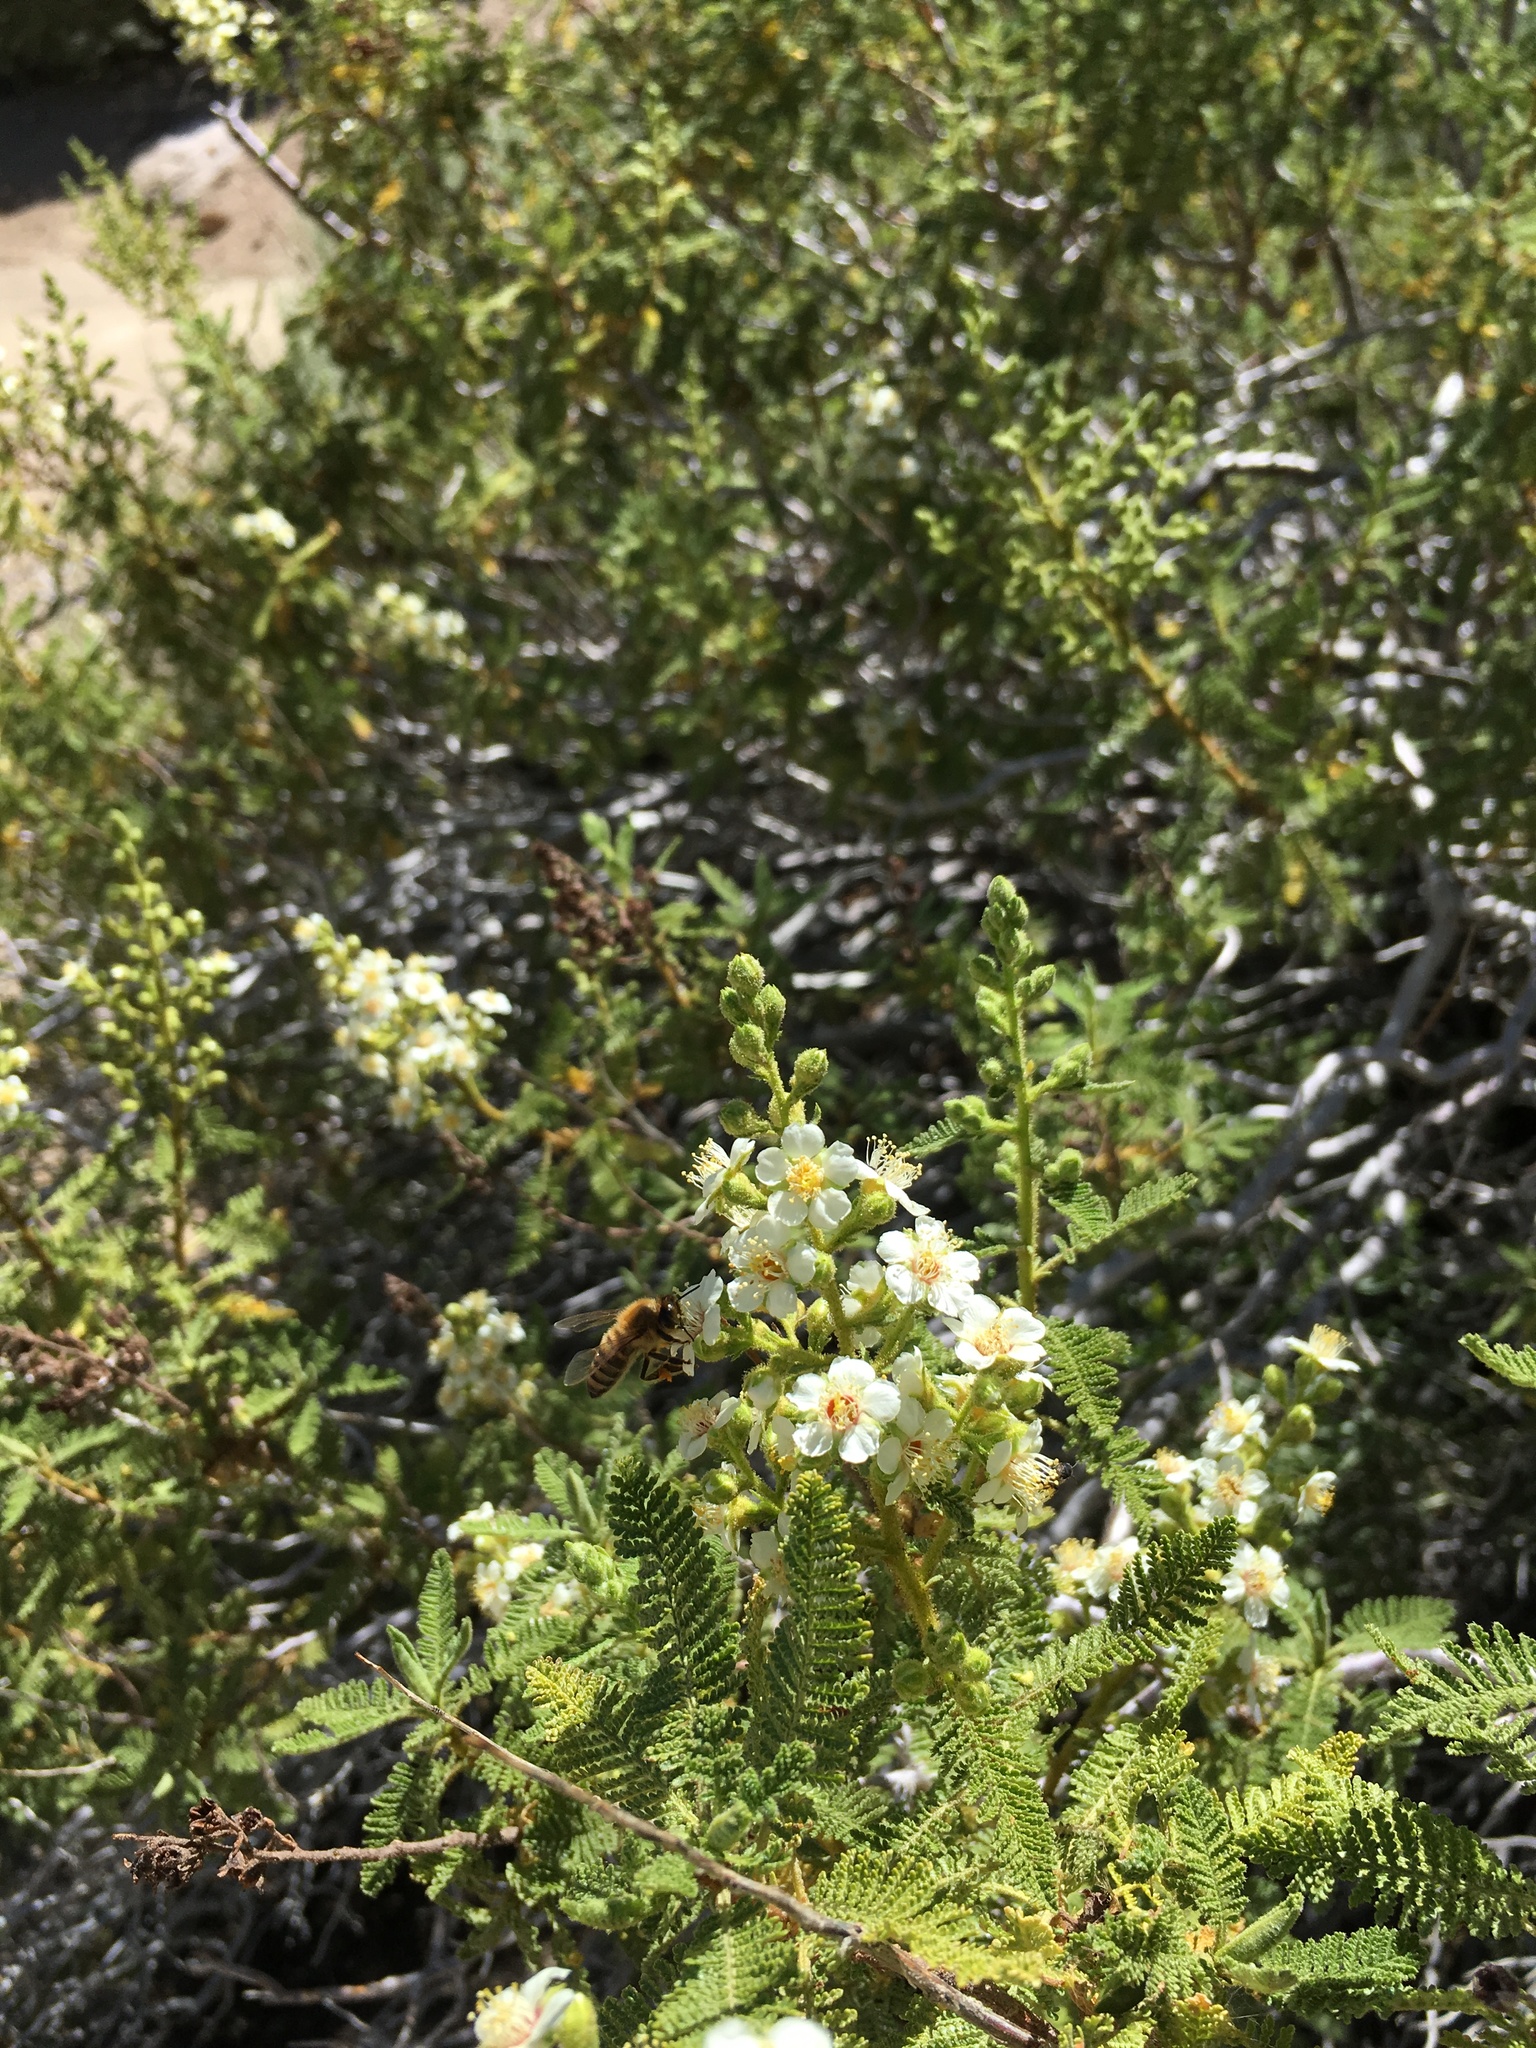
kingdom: Animalia
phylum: Arthropoda
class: Insecta
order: Hymenoptera
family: Apidae
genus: Apis
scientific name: Apis mellifera
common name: Honey bee
